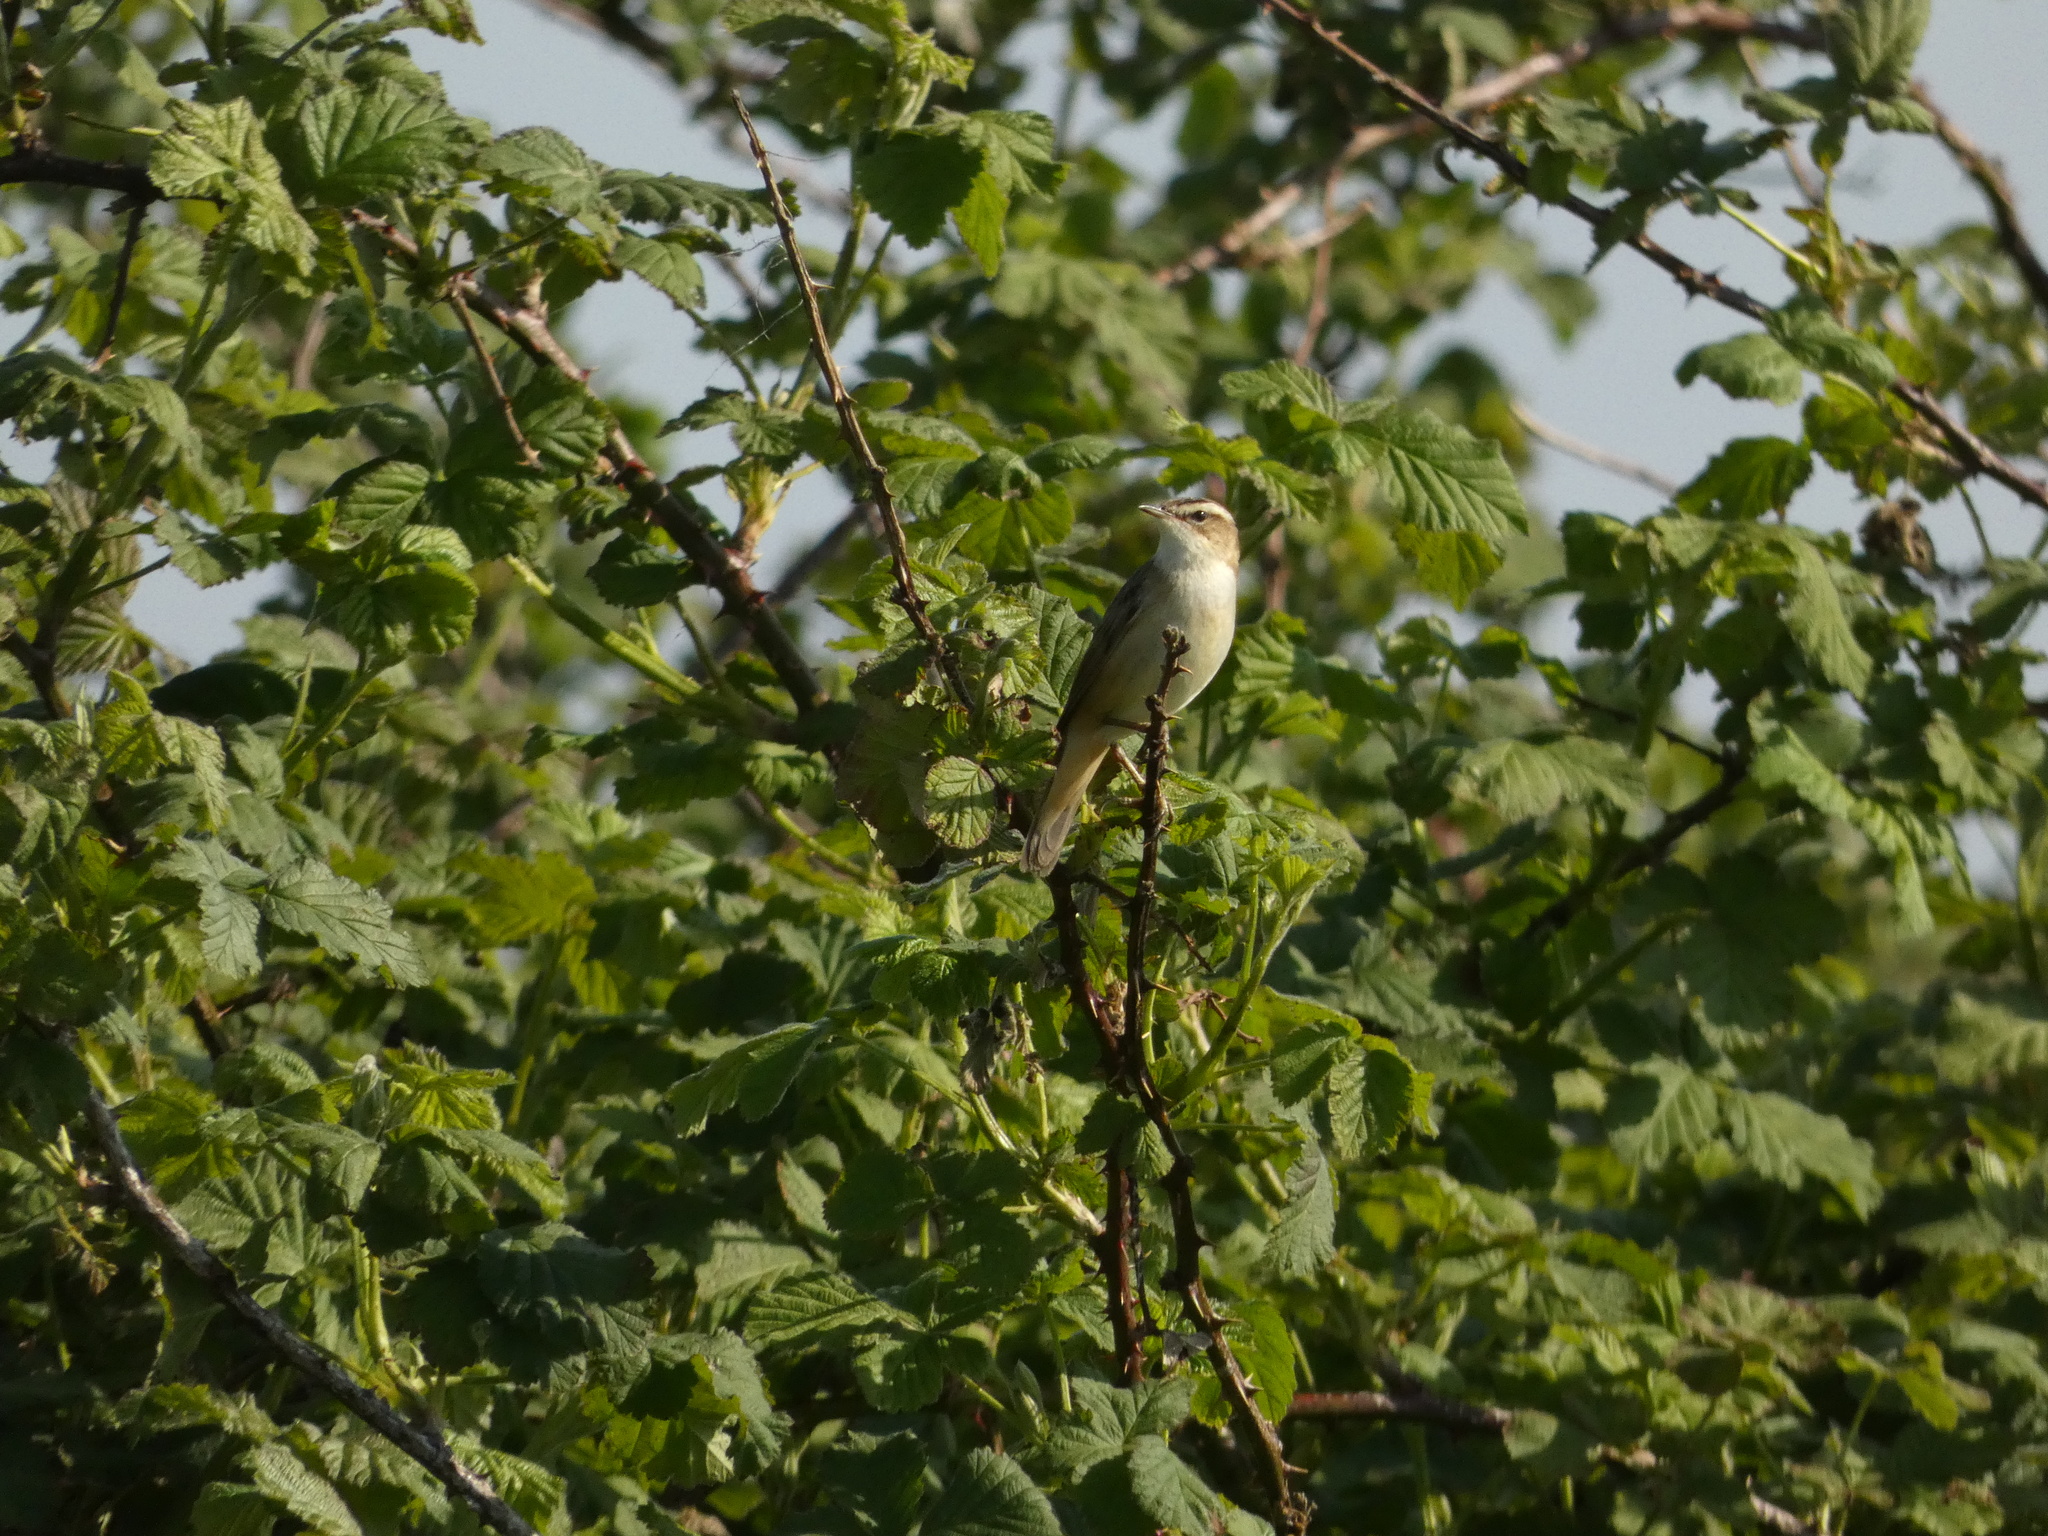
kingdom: Animalia
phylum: Chordata
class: Aves
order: Passeriformes
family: Acrocephalidae
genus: Acrocephalus
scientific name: Acrocephalus schoenobaenus
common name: Sedge warbler
